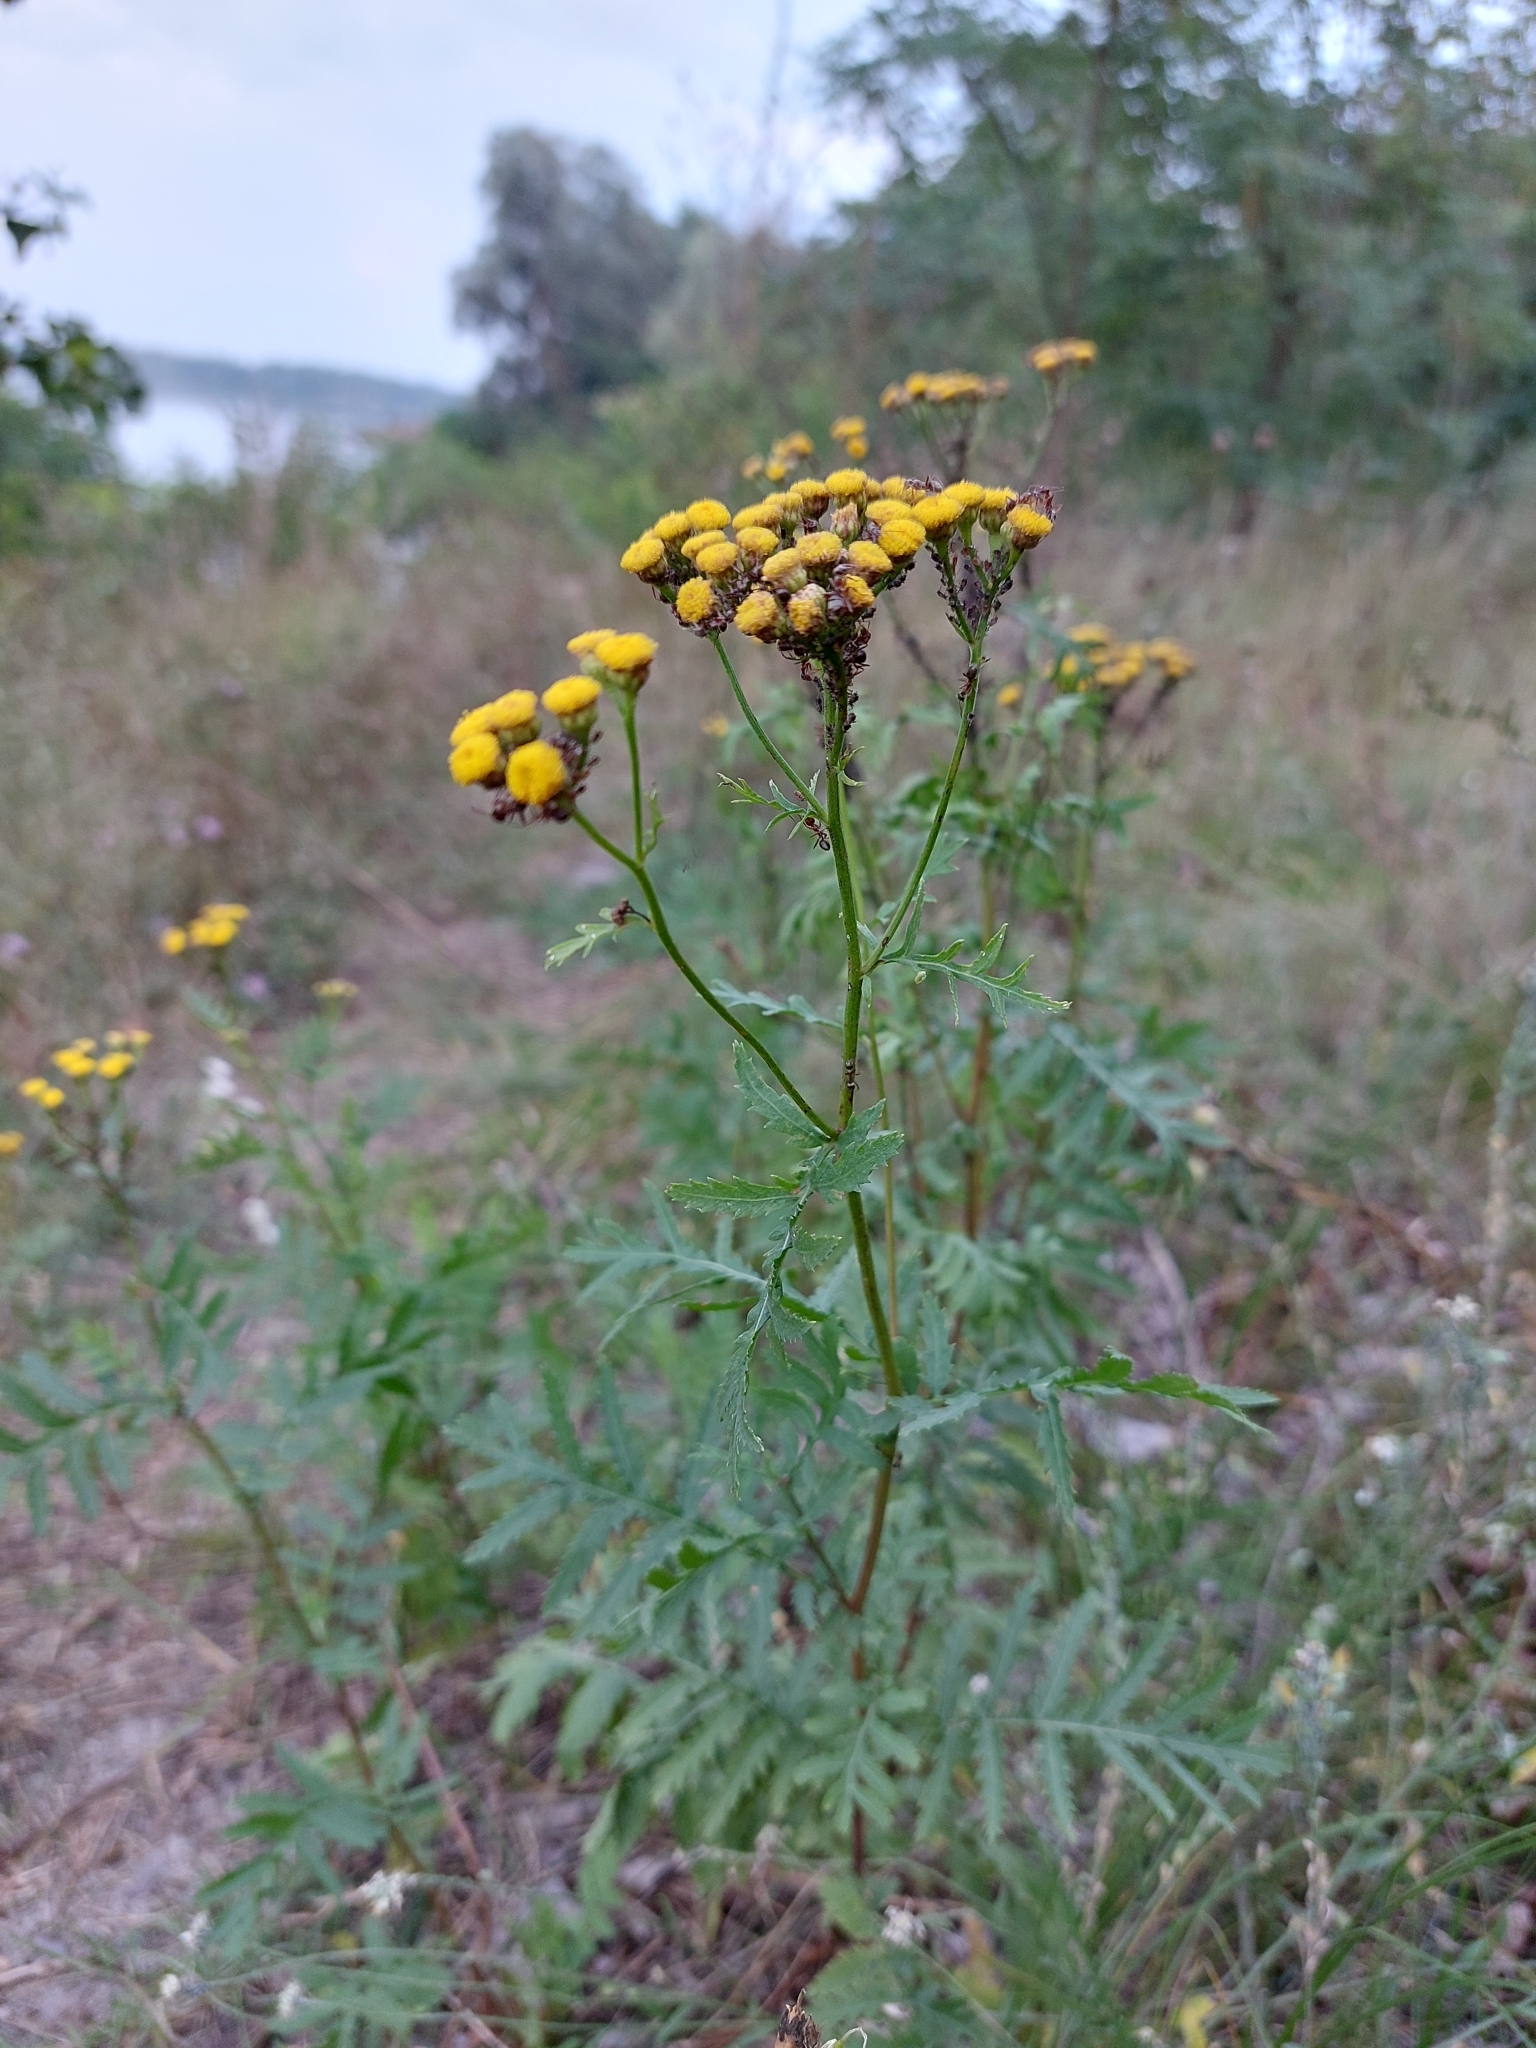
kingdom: Plantae
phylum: Tracheophyta
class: Magnoliopsida
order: Asterales
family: Asteraceae
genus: Tanacetum
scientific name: Tanacetum vulgare
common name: Common tansy
